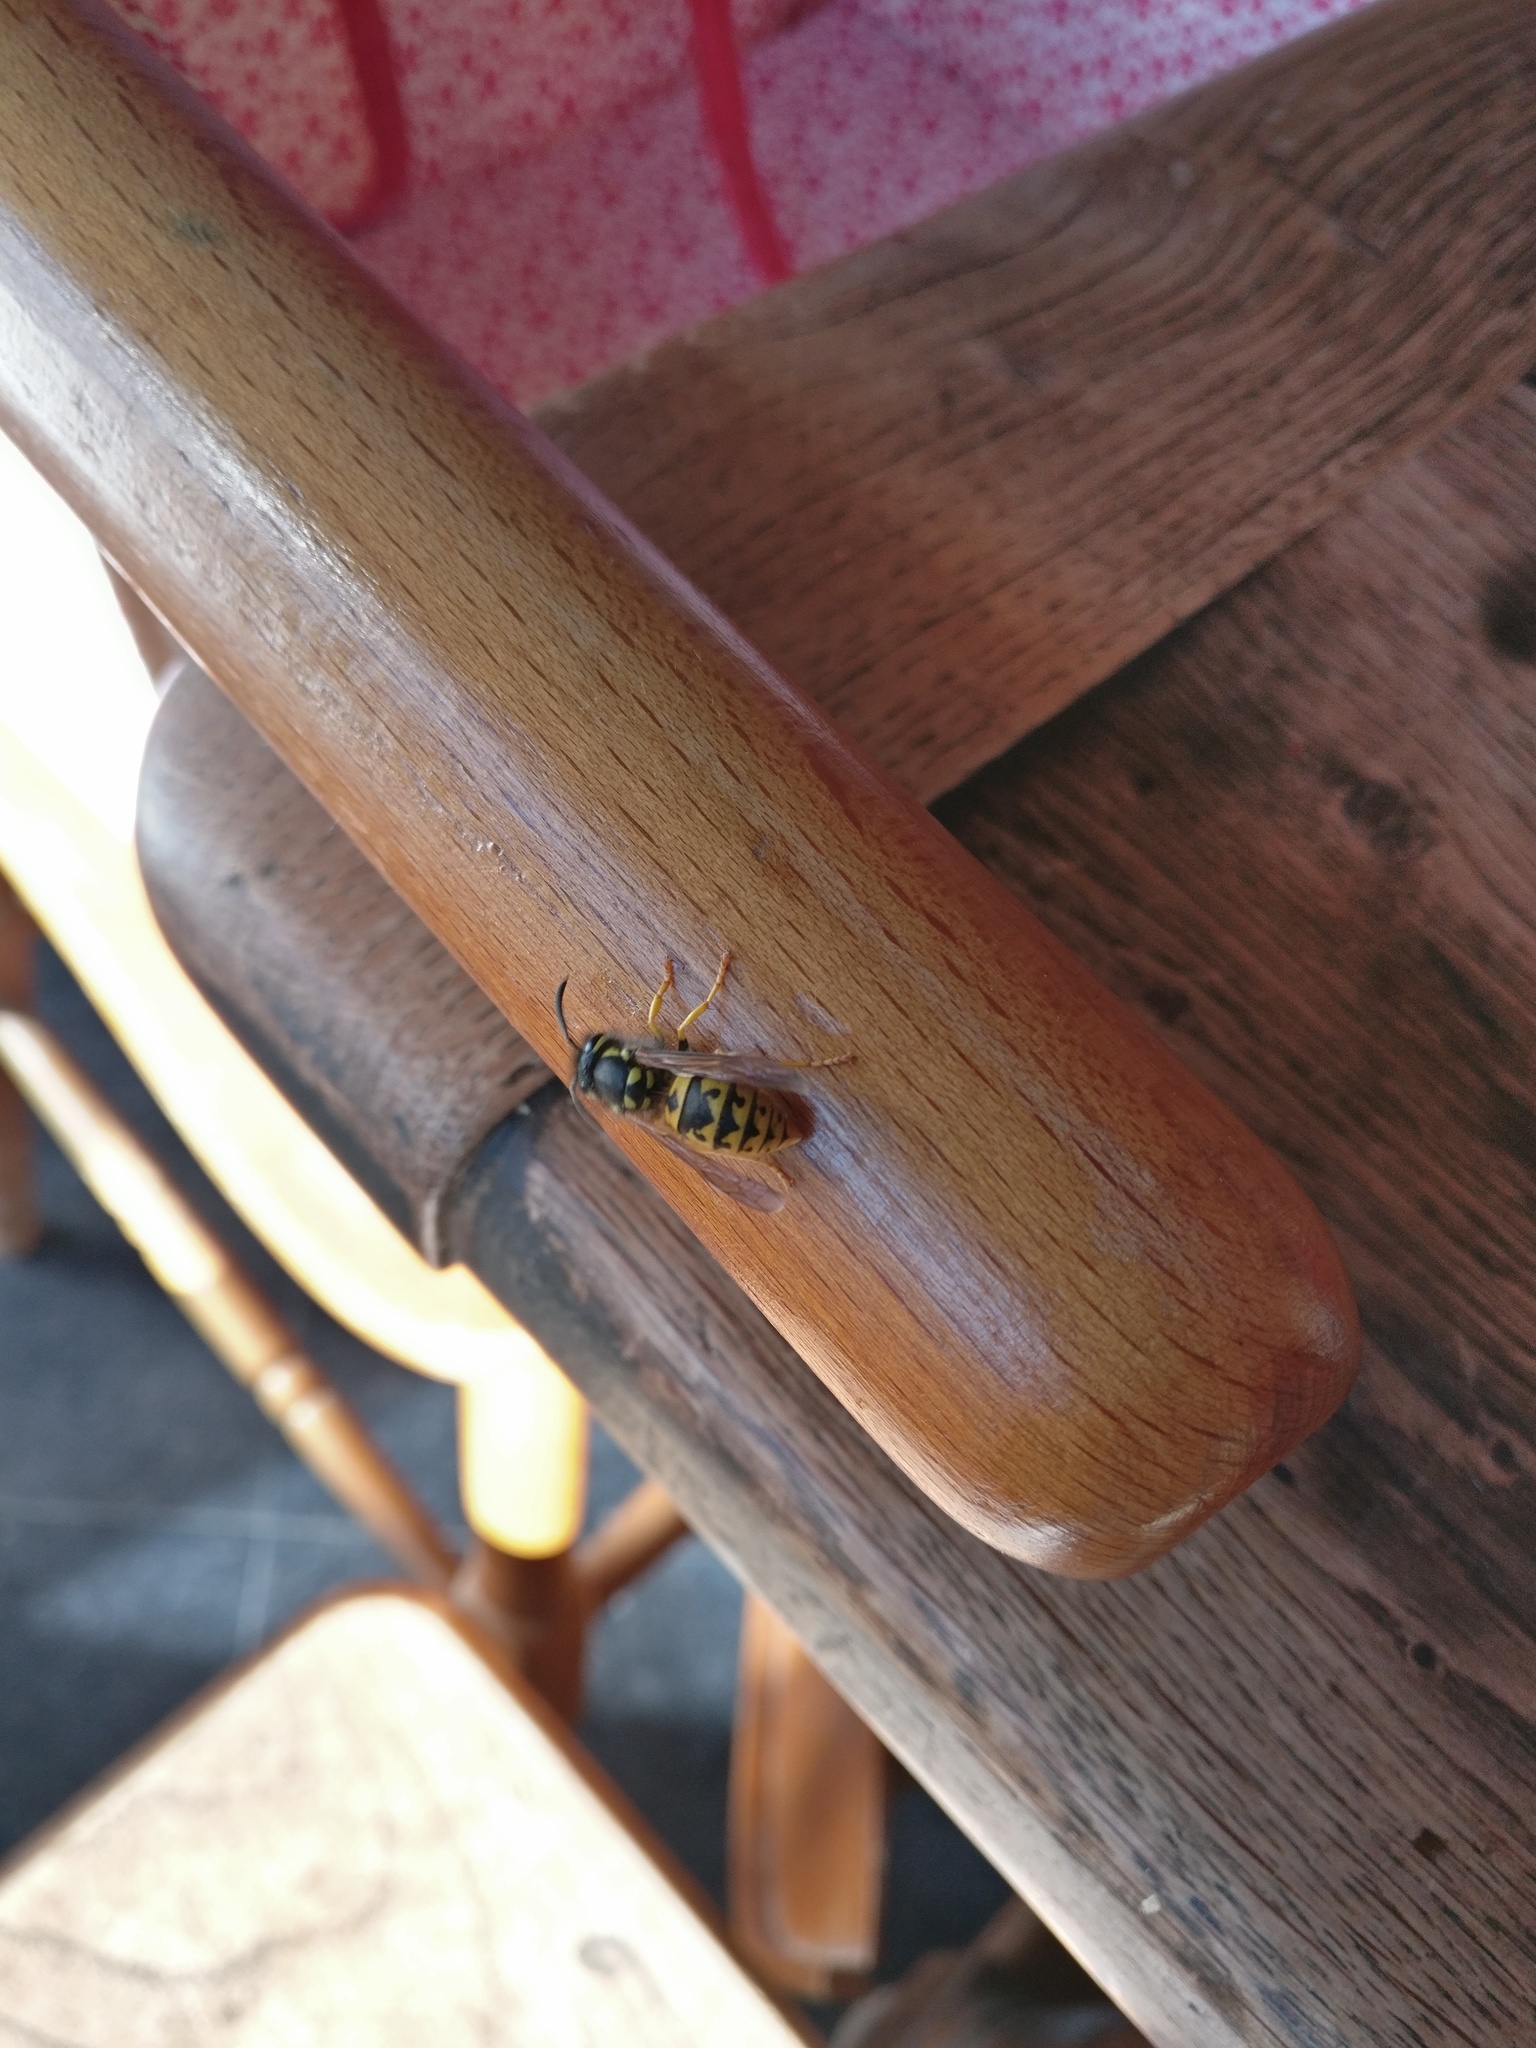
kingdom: Animalia
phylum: Arthropoda
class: Insecta
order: Hymenoptera
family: Vespidae
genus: Vespula
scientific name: Vespula germanica
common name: German wasp
